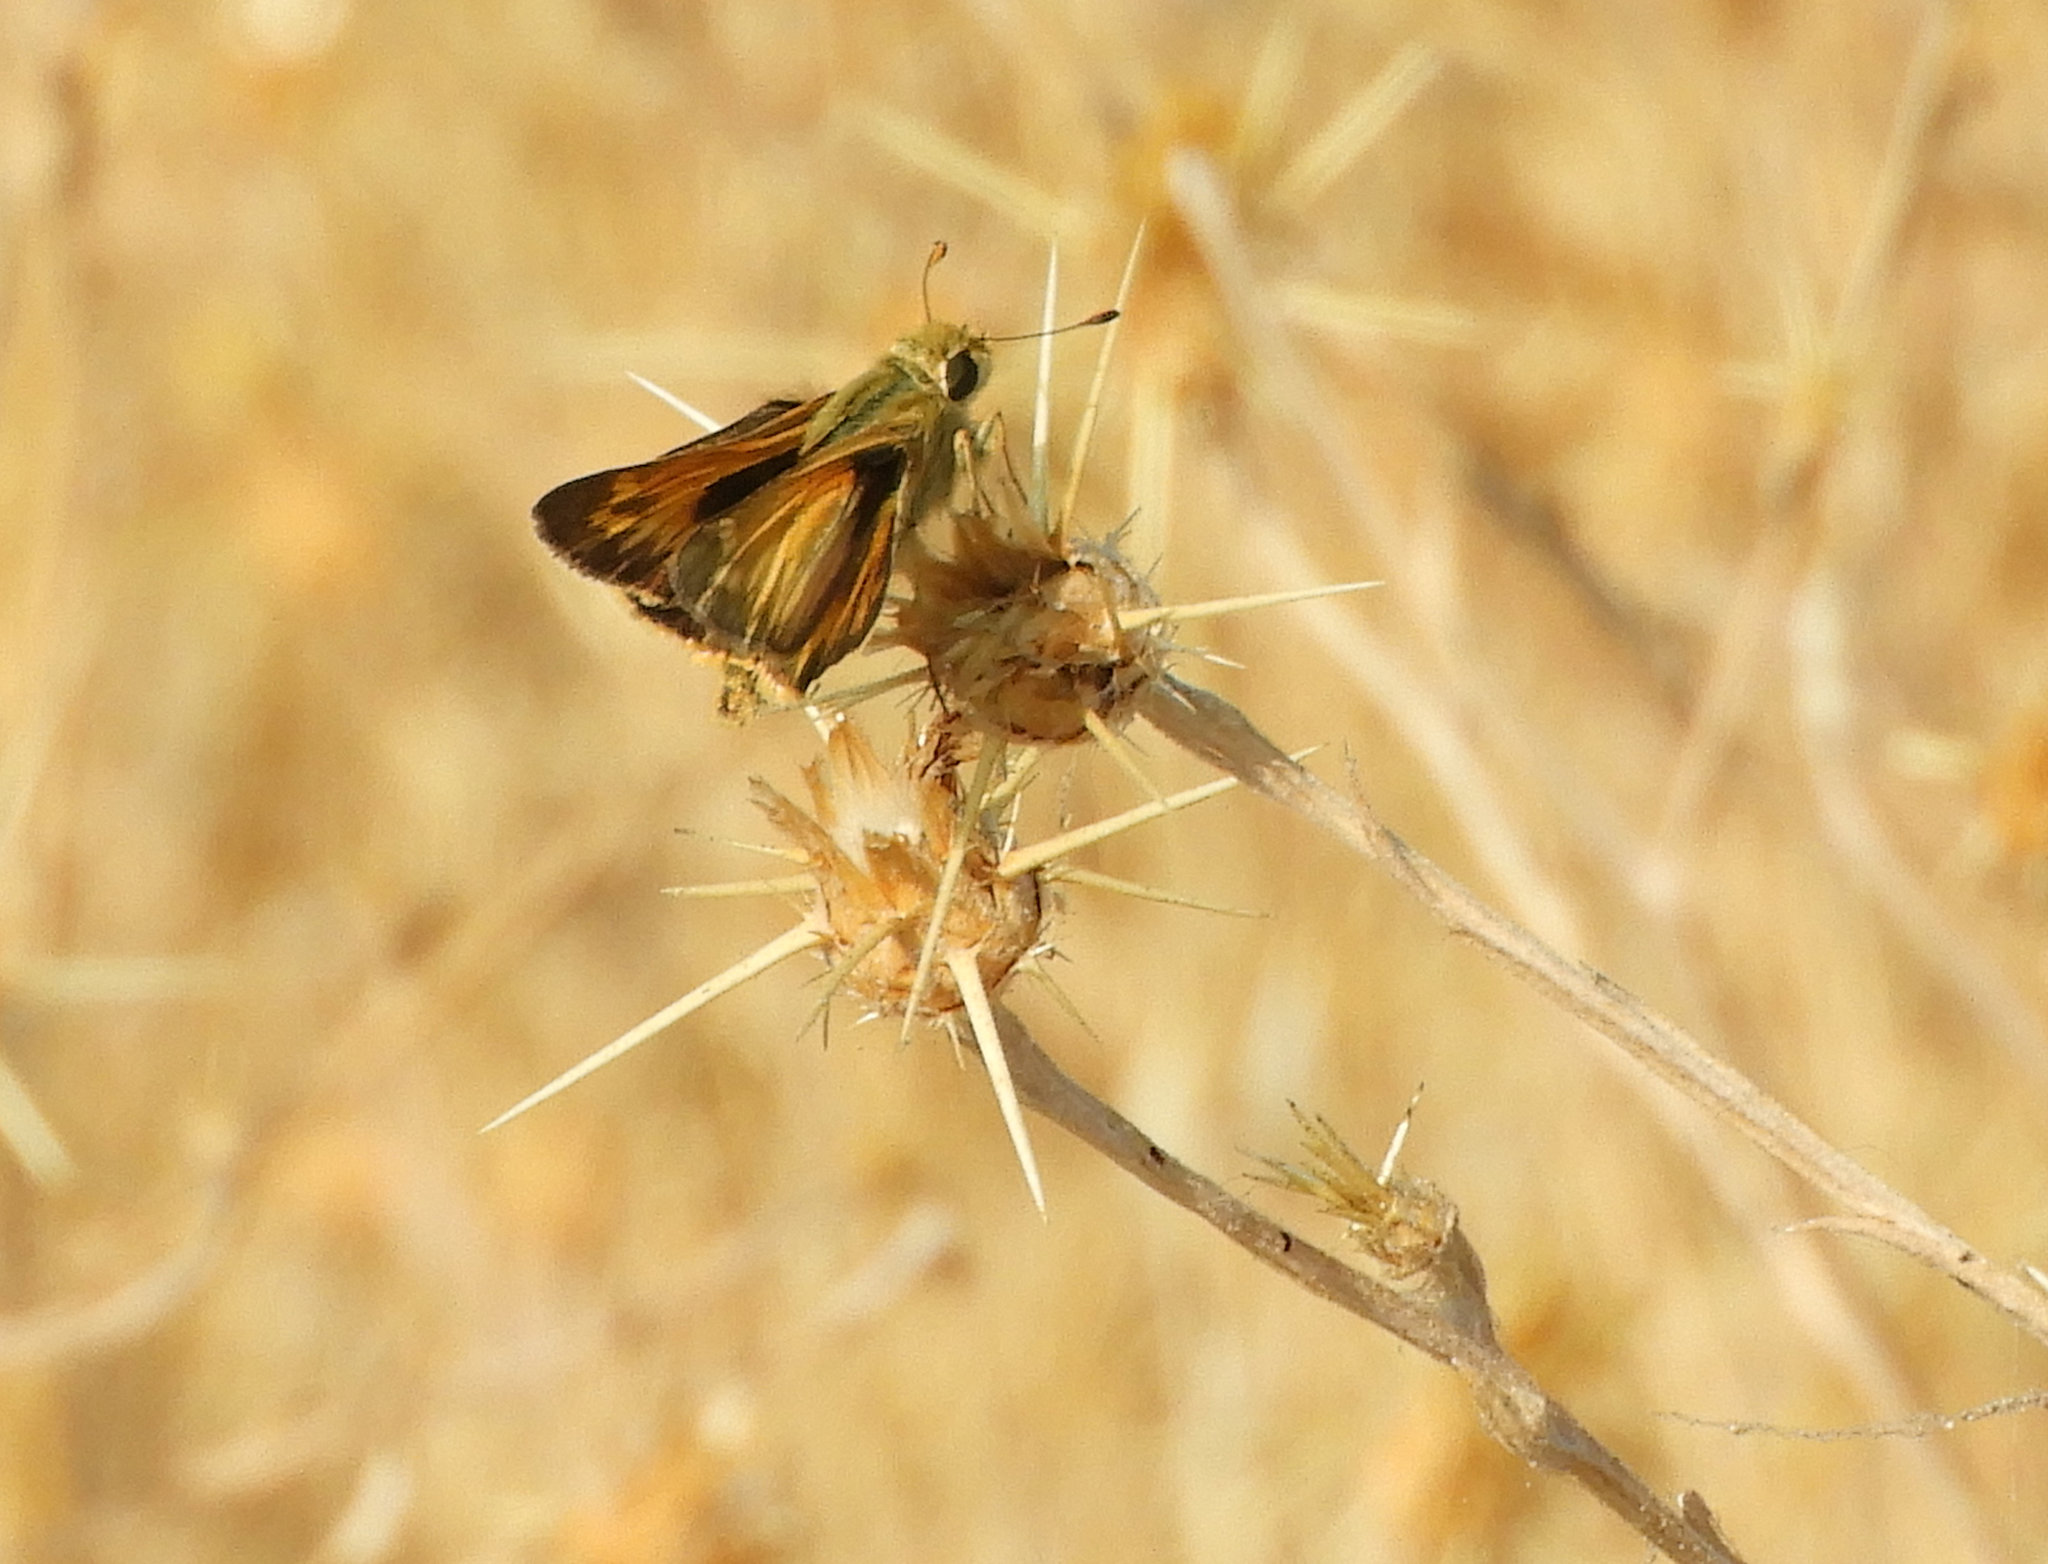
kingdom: Animalia
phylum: Arthropoda
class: Insecta
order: Lepidoptera
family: Hesperiidae
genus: Ochlodes
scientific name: Ochlodes sylvanoides
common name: Woodland skipper
